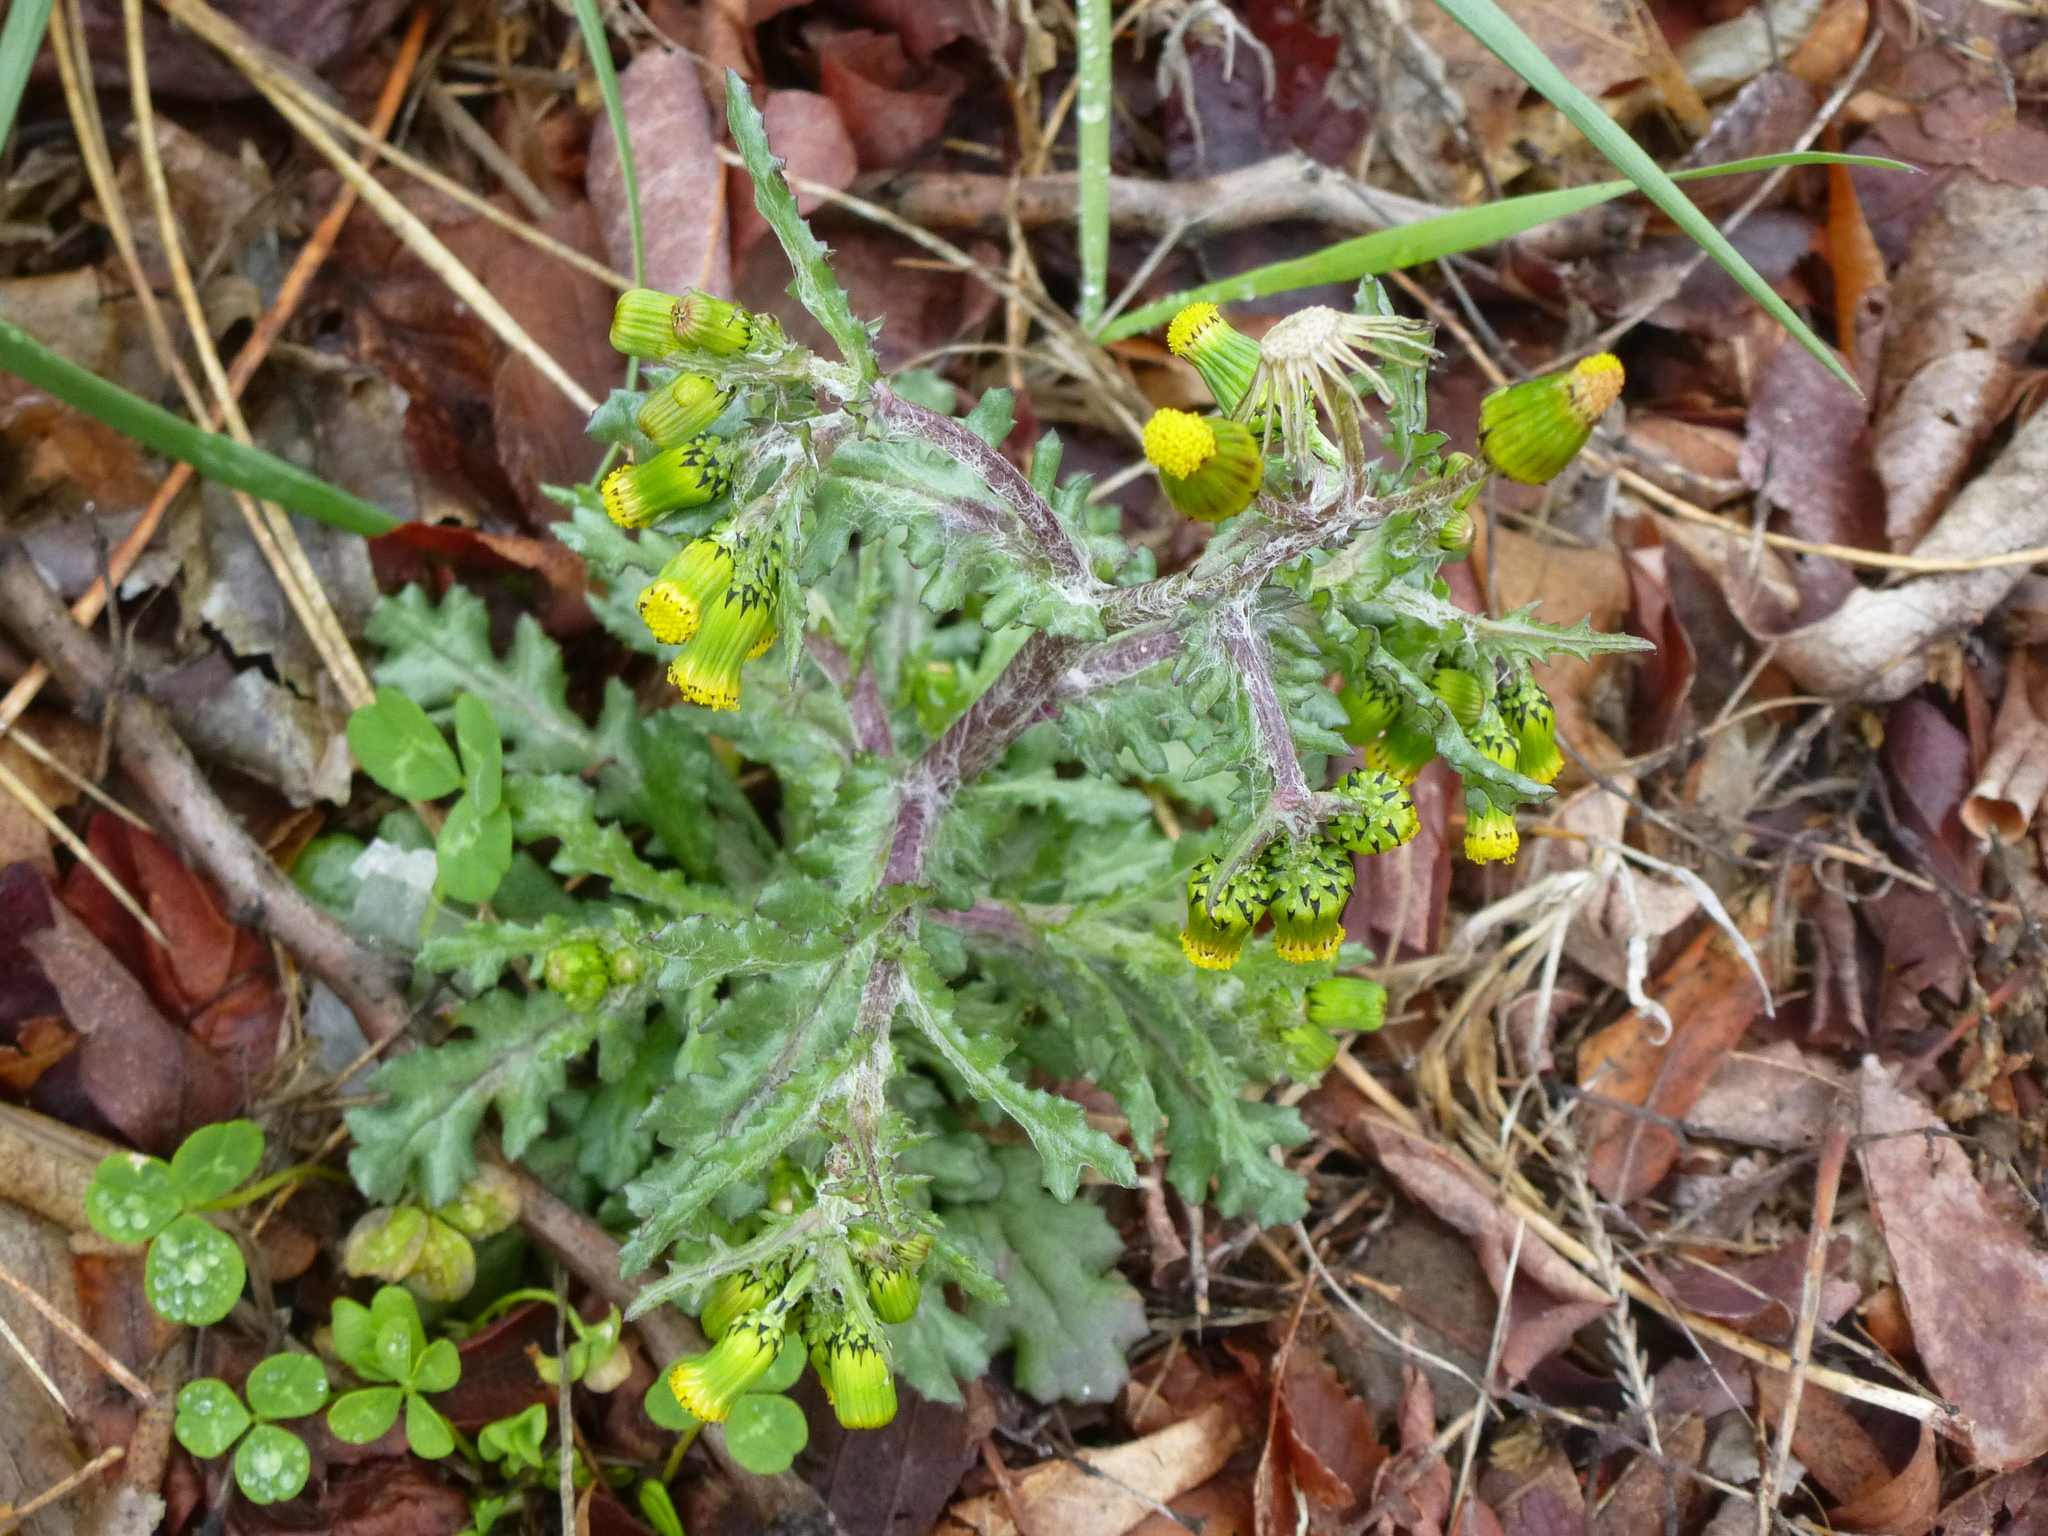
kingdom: Plantae
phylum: Tracheophyta
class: Magnoliopsida
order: Asterales
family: Asteraceae
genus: Senecio
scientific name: Senecio vulgaris
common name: Old-man-in-the-spring
